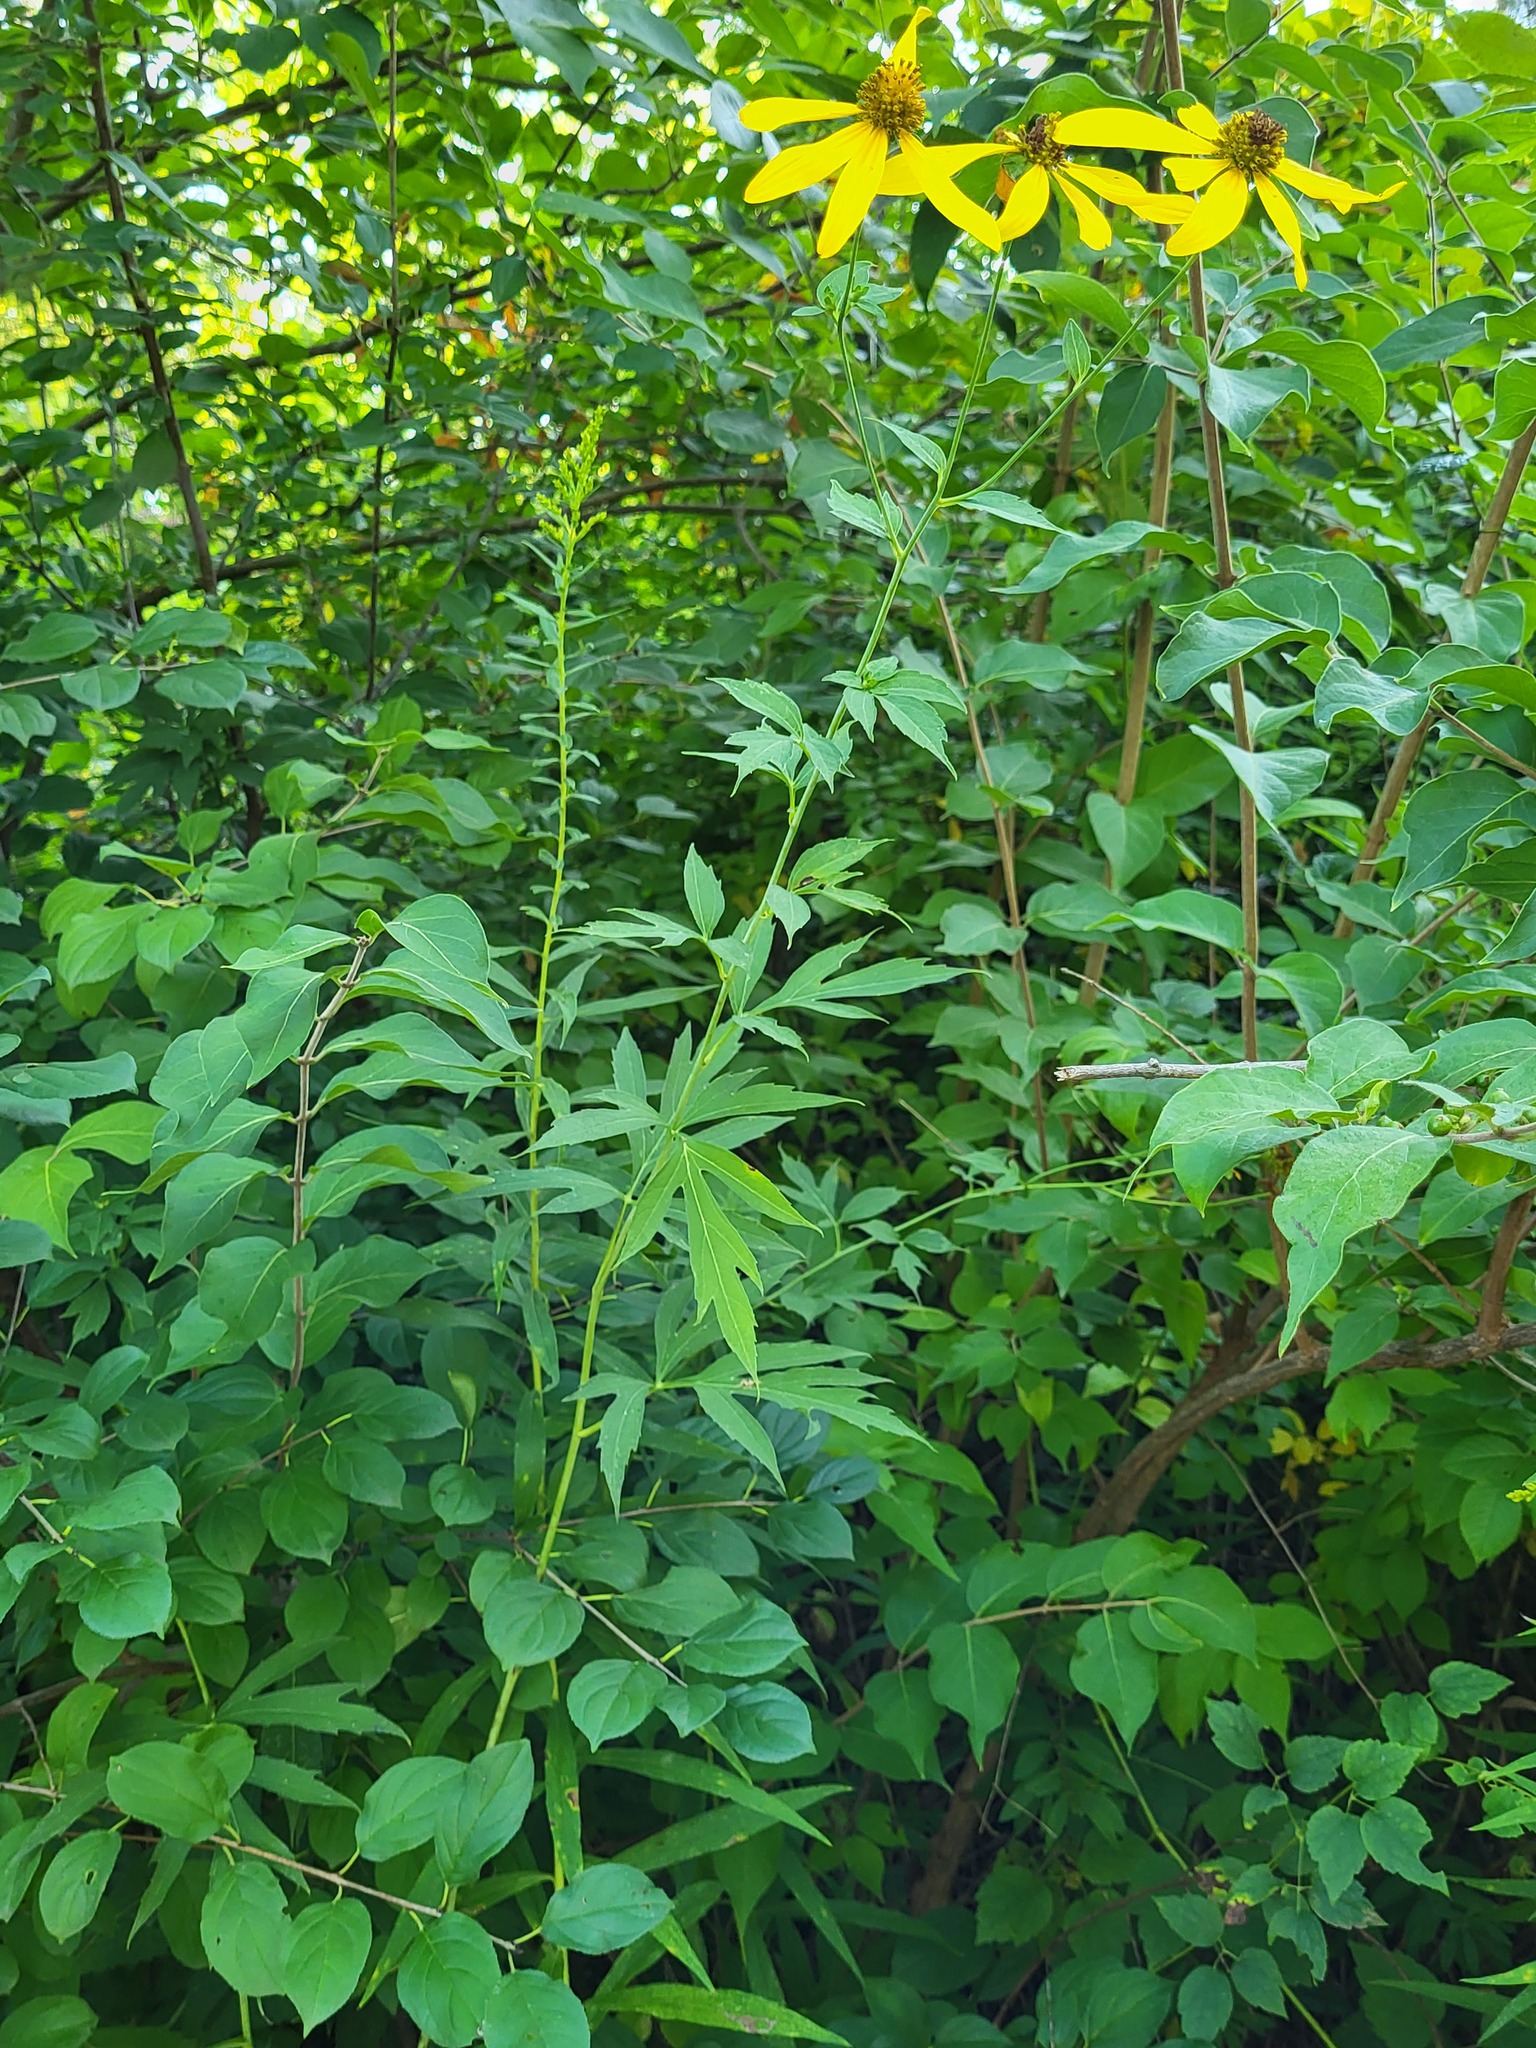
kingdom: Plantae
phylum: Tracheophyta
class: Magnoliopsida
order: Asterales
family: Asteraceae
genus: Rudbeckia
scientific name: Rudbeckia laciniata
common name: Coneflower
